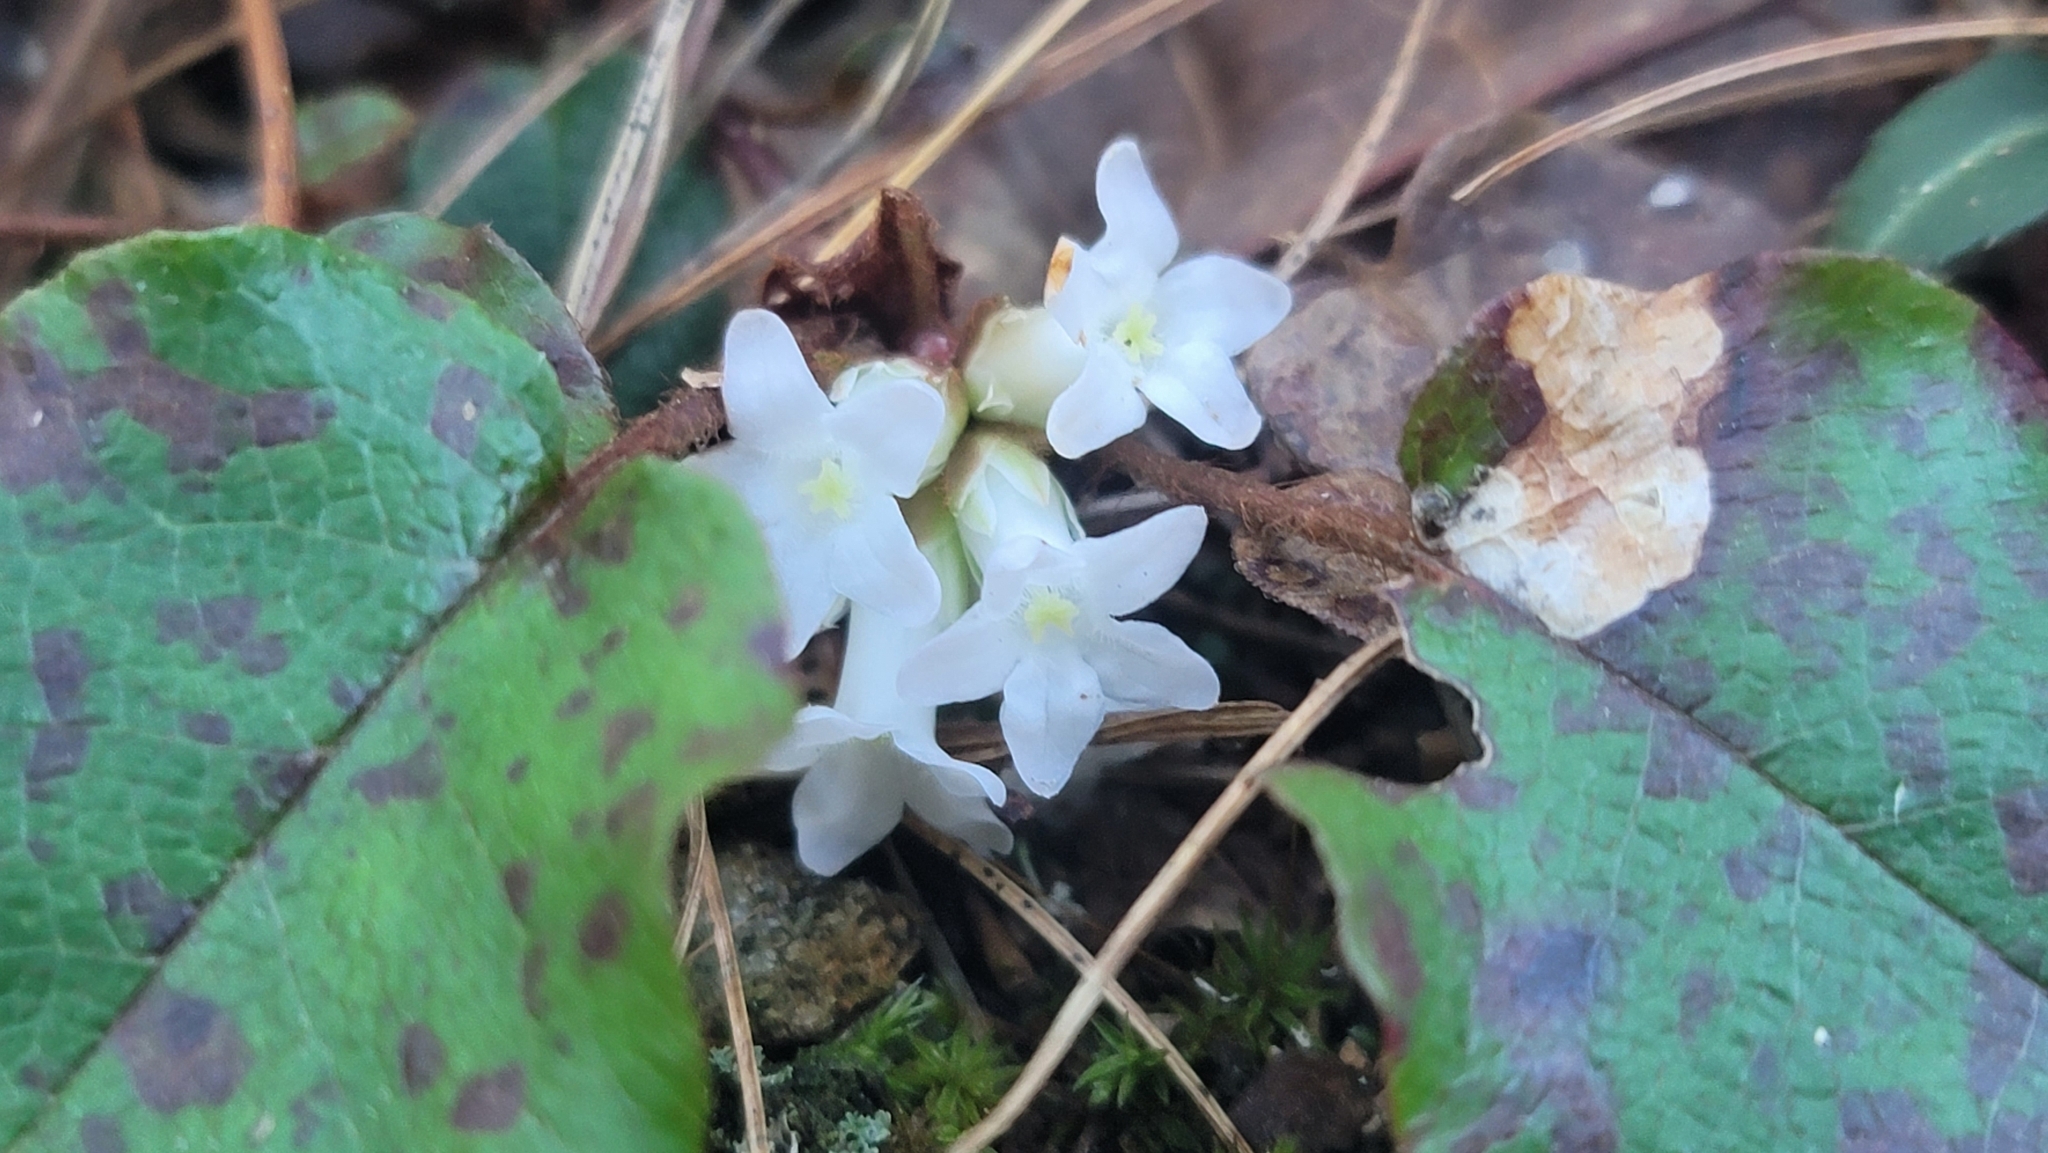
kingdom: Plantae
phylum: Tracheophyta
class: Magnoliopsida
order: Ericales
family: Ericaceae
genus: Epigaea
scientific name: Epigaea repens
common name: Gravelroot
